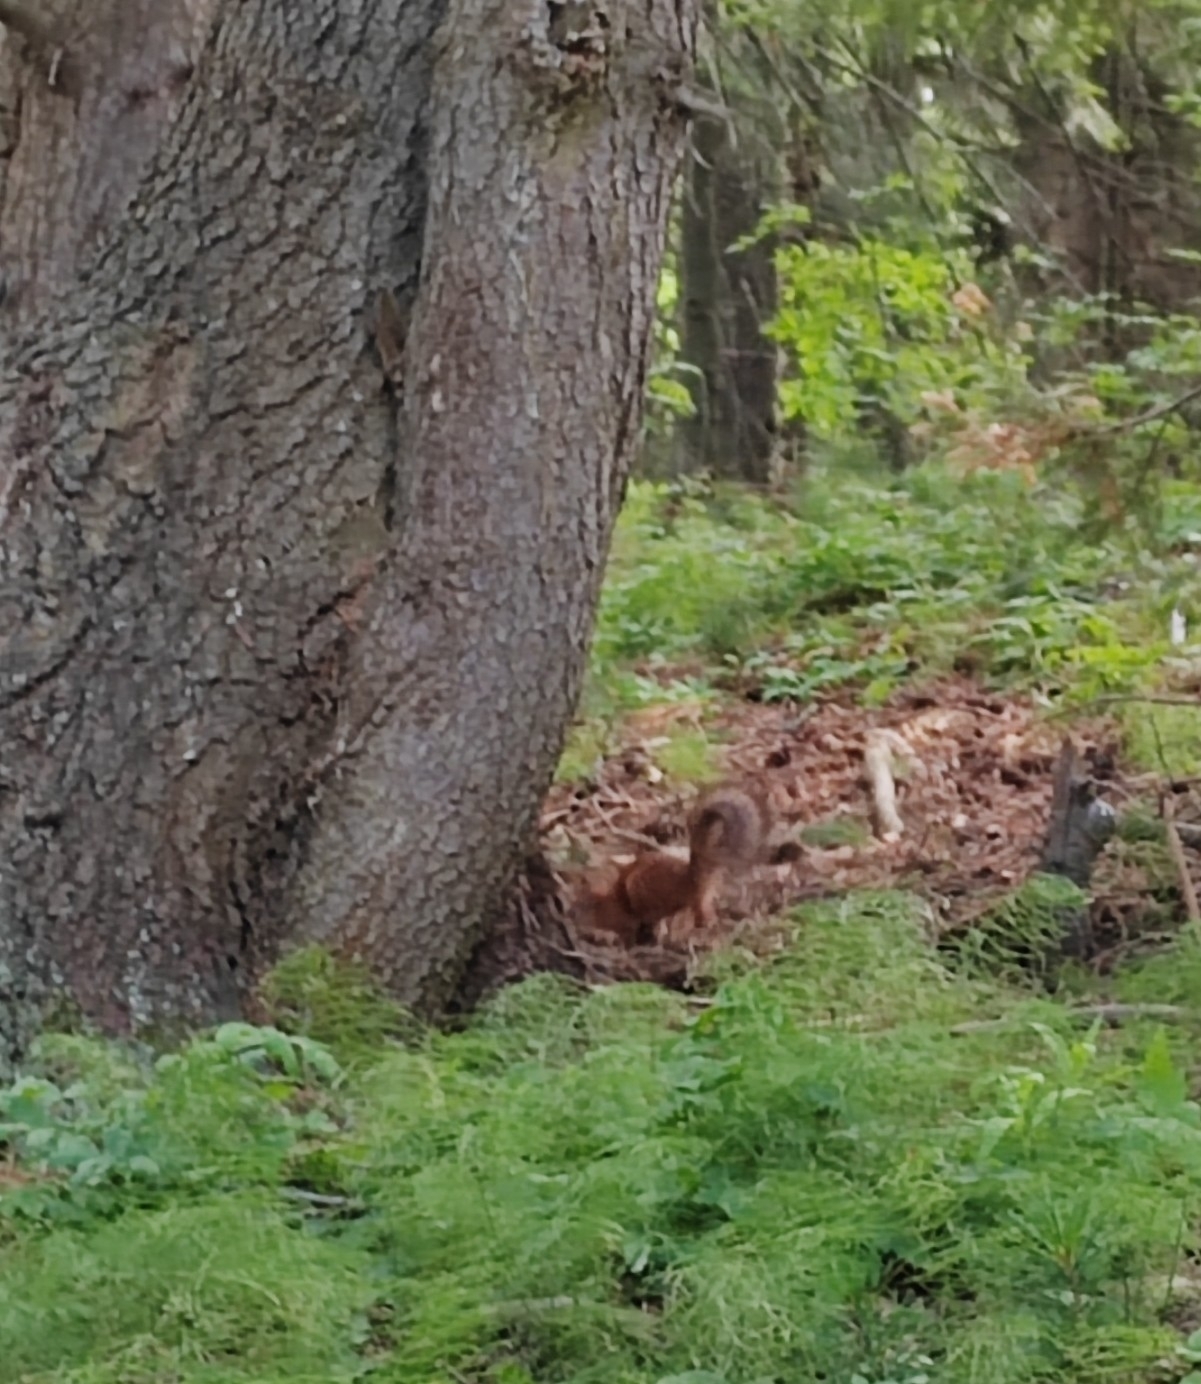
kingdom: Animalia
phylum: Chordata
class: Mammalia
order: Rodentia
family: Sciuridae
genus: Sciurus
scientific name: Sciurus vulgaris
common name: Eurasian red squirrel
